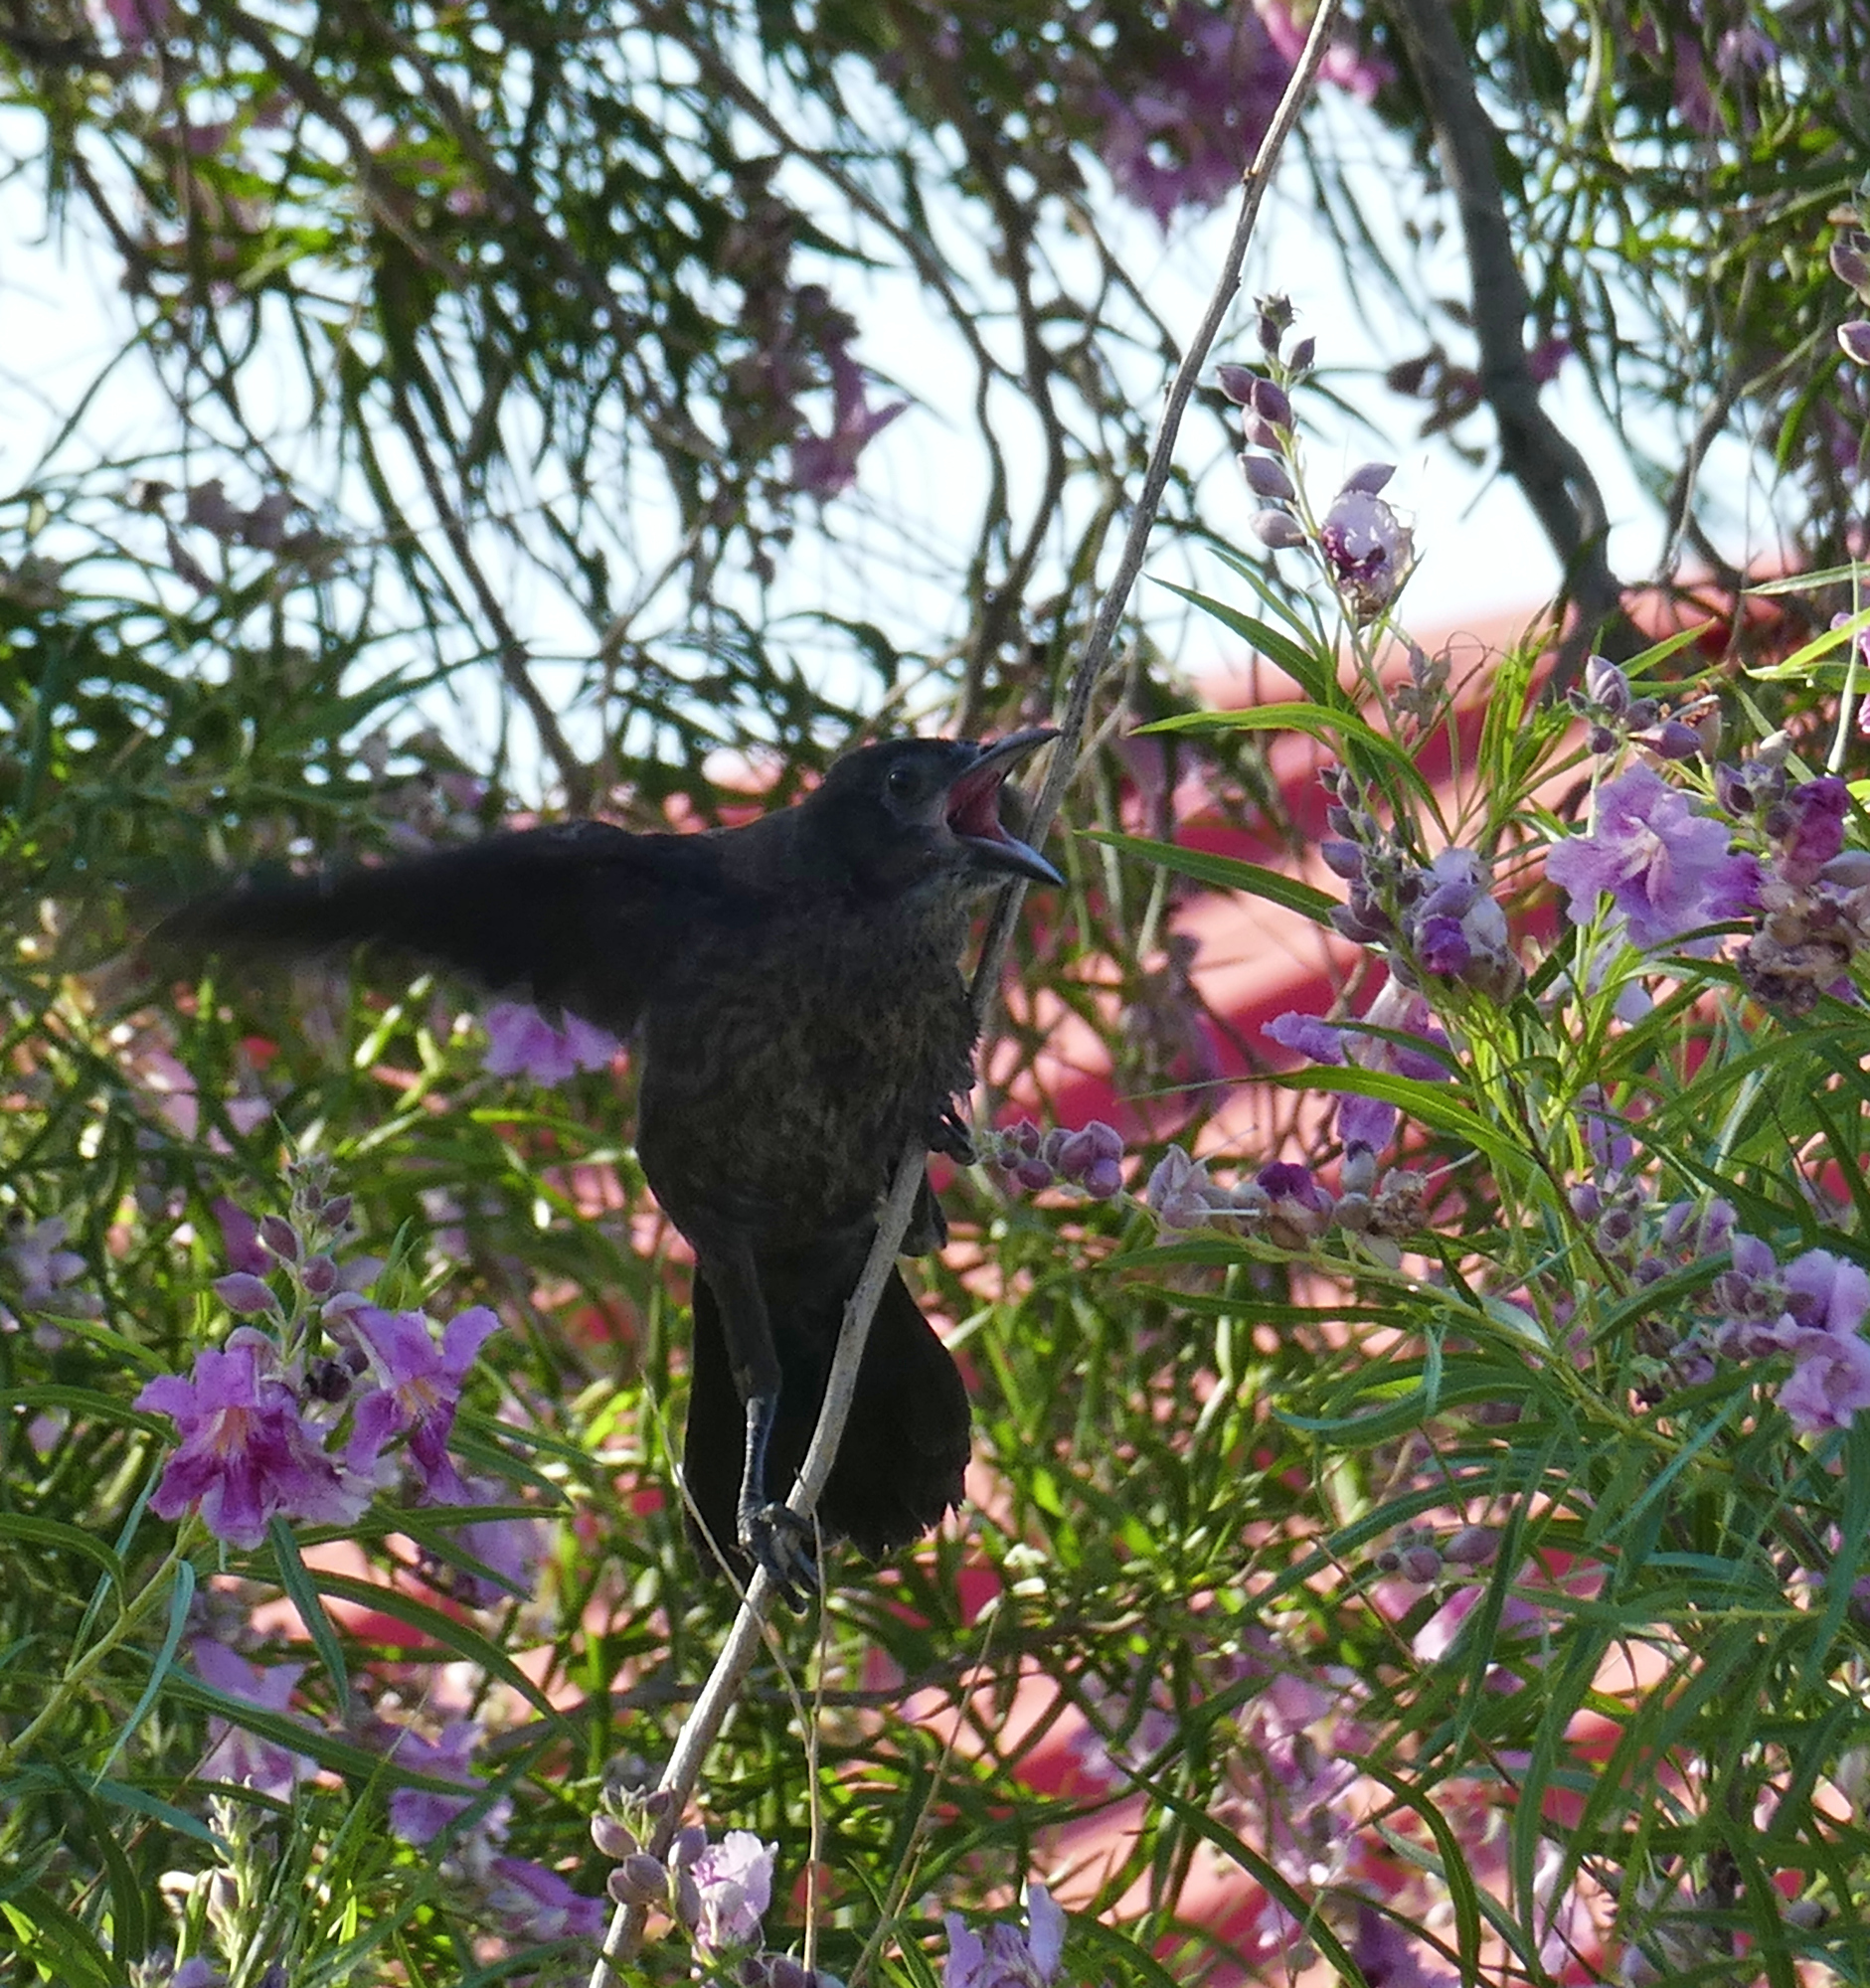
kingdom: Animalia
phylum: Chordata
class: Aves
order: Passeriformes
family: Icteridae
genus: Quiscalus
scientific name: Quiscalus mexicanus
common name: Great-tailed grackle
